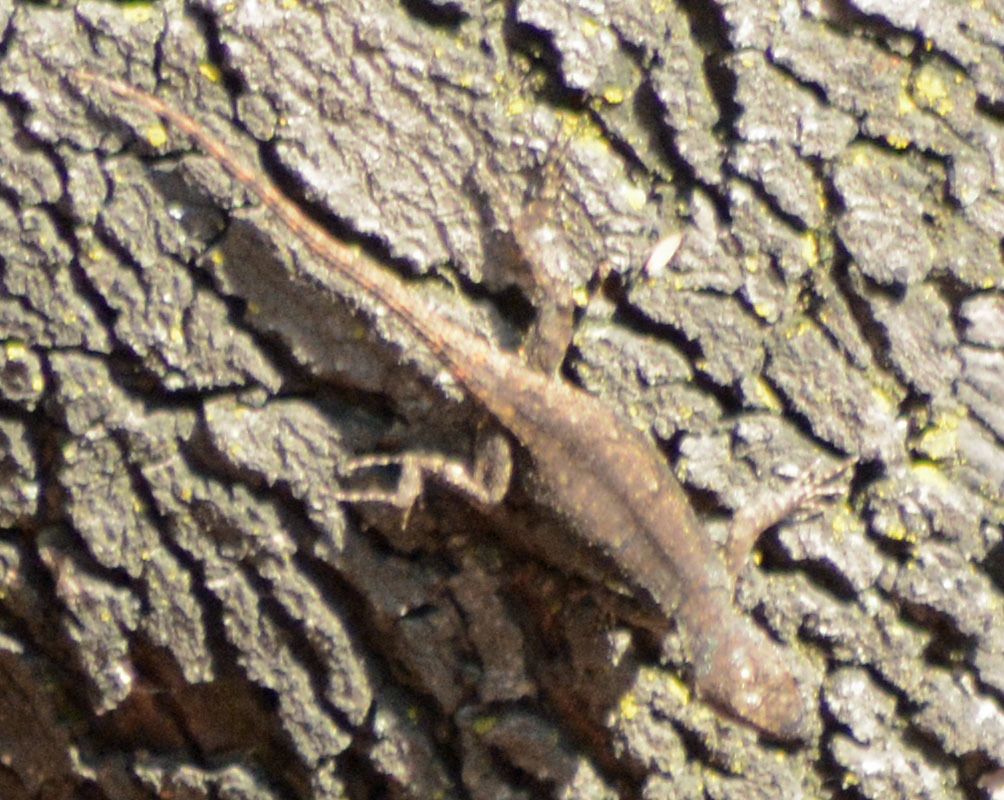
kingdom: Animalia
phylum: Chordata
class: Squamata
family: Phrynosomatidae
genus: Sceloporus
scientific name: Sceloporus grammicus
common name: Mesquite lizard
